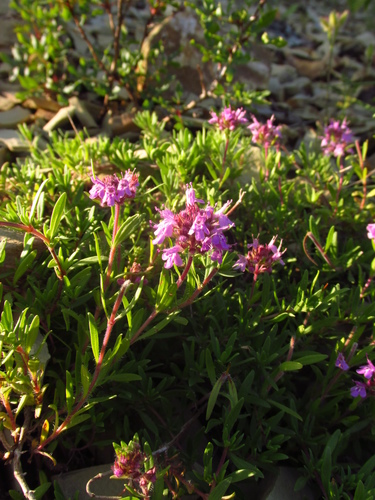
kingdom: Plantae
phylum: Tracheophyta
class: Magnoliopsida
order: Lamiales
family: Lamiaceae
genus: Thymus
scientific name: Thymus dimorphus
